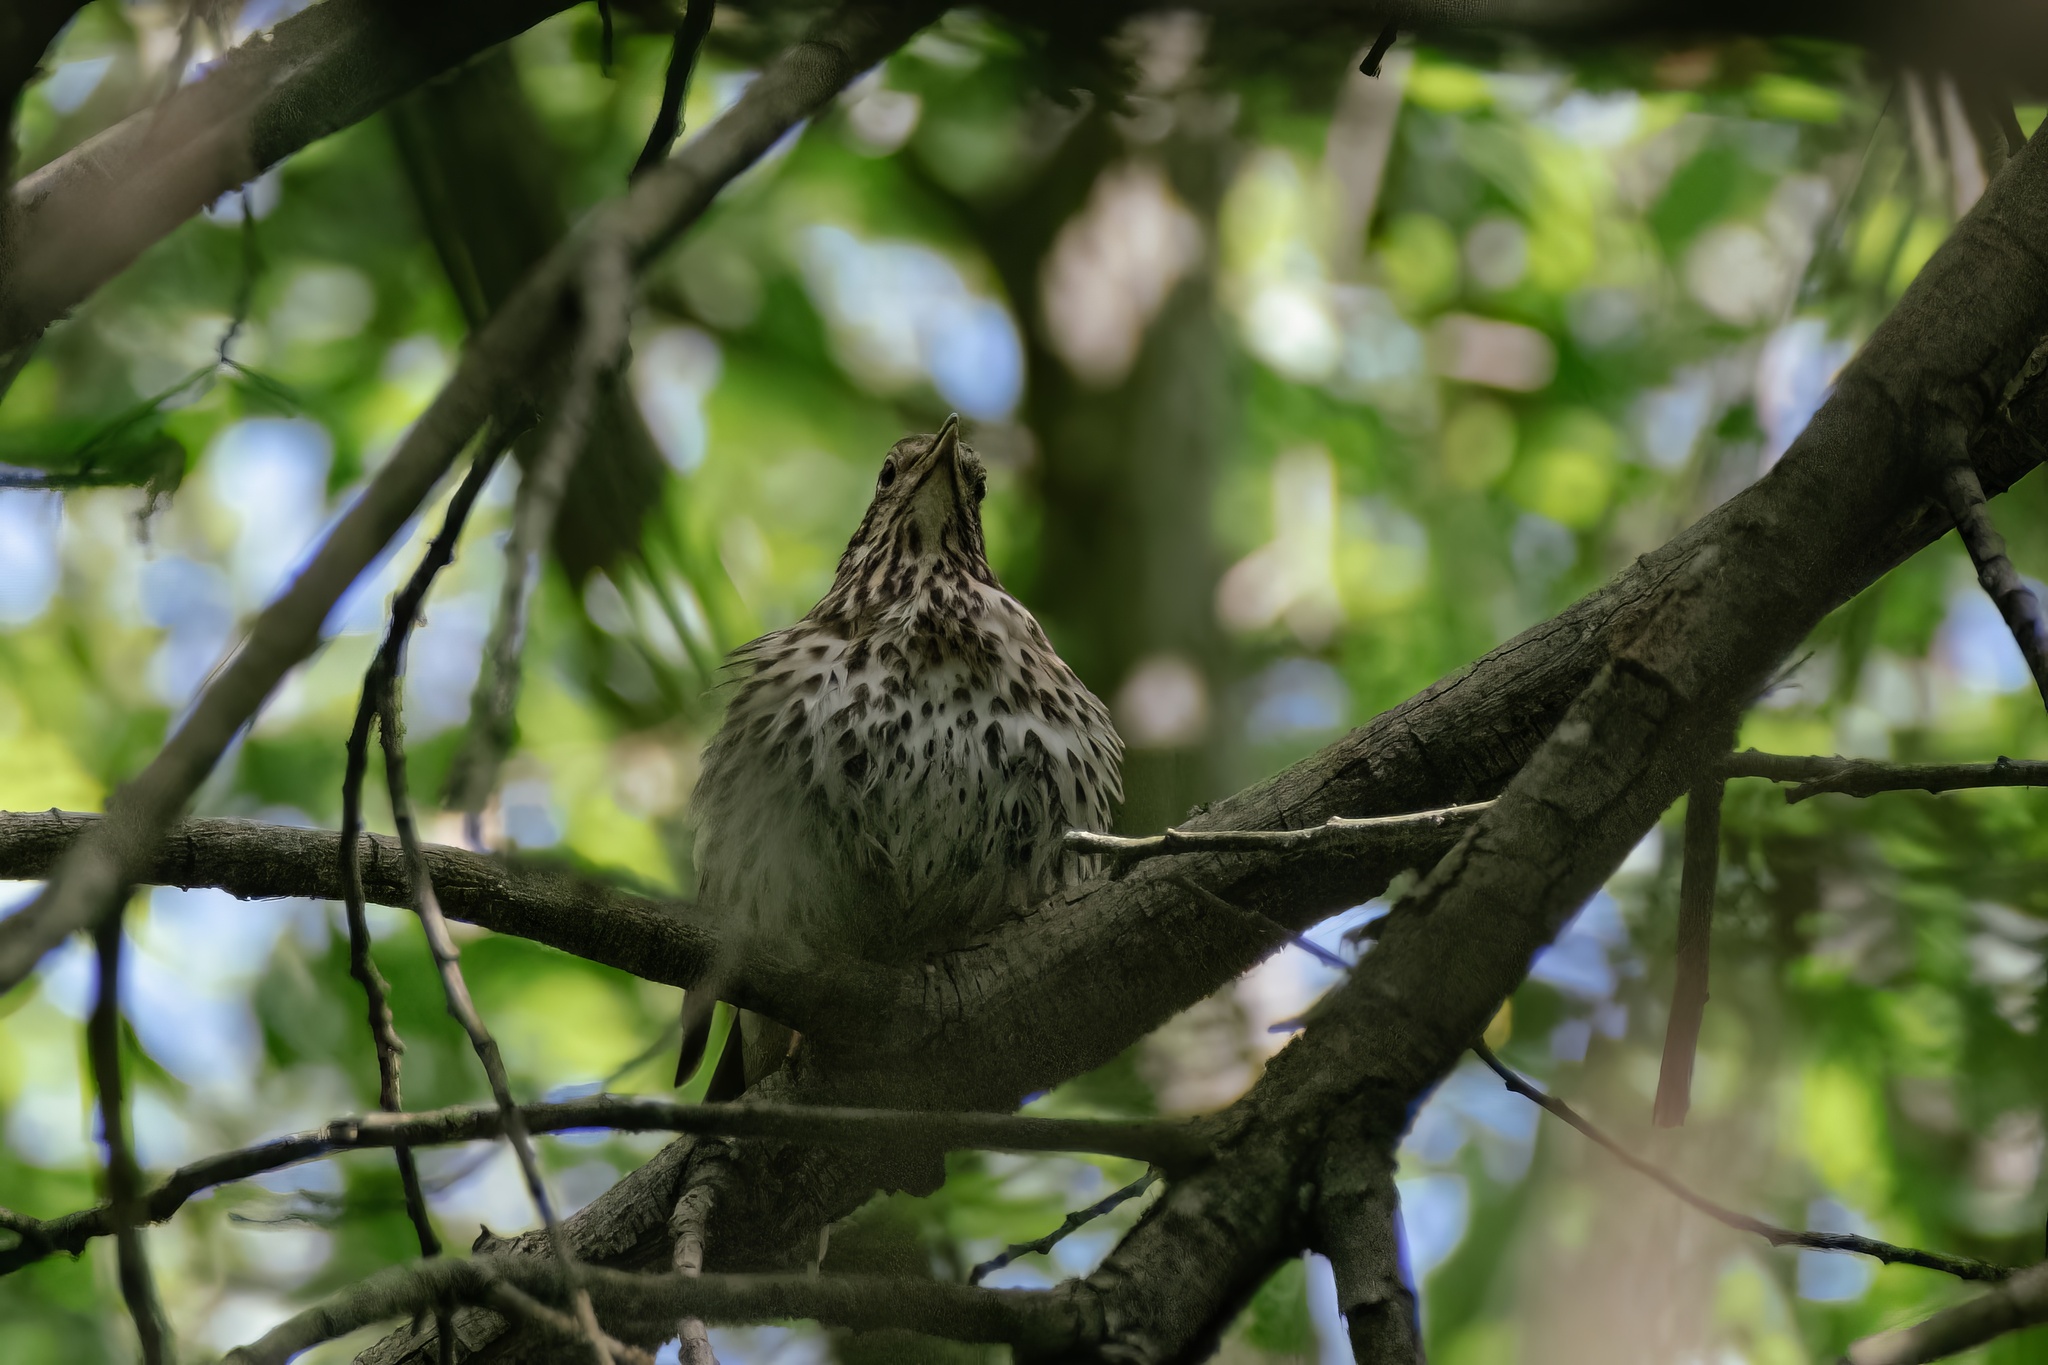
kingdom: Animalia
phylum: Chordata
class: Aves
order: Passeriformes
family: Turdidae
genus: Turdus
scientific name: Turdus philomelos
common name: Song thrush
